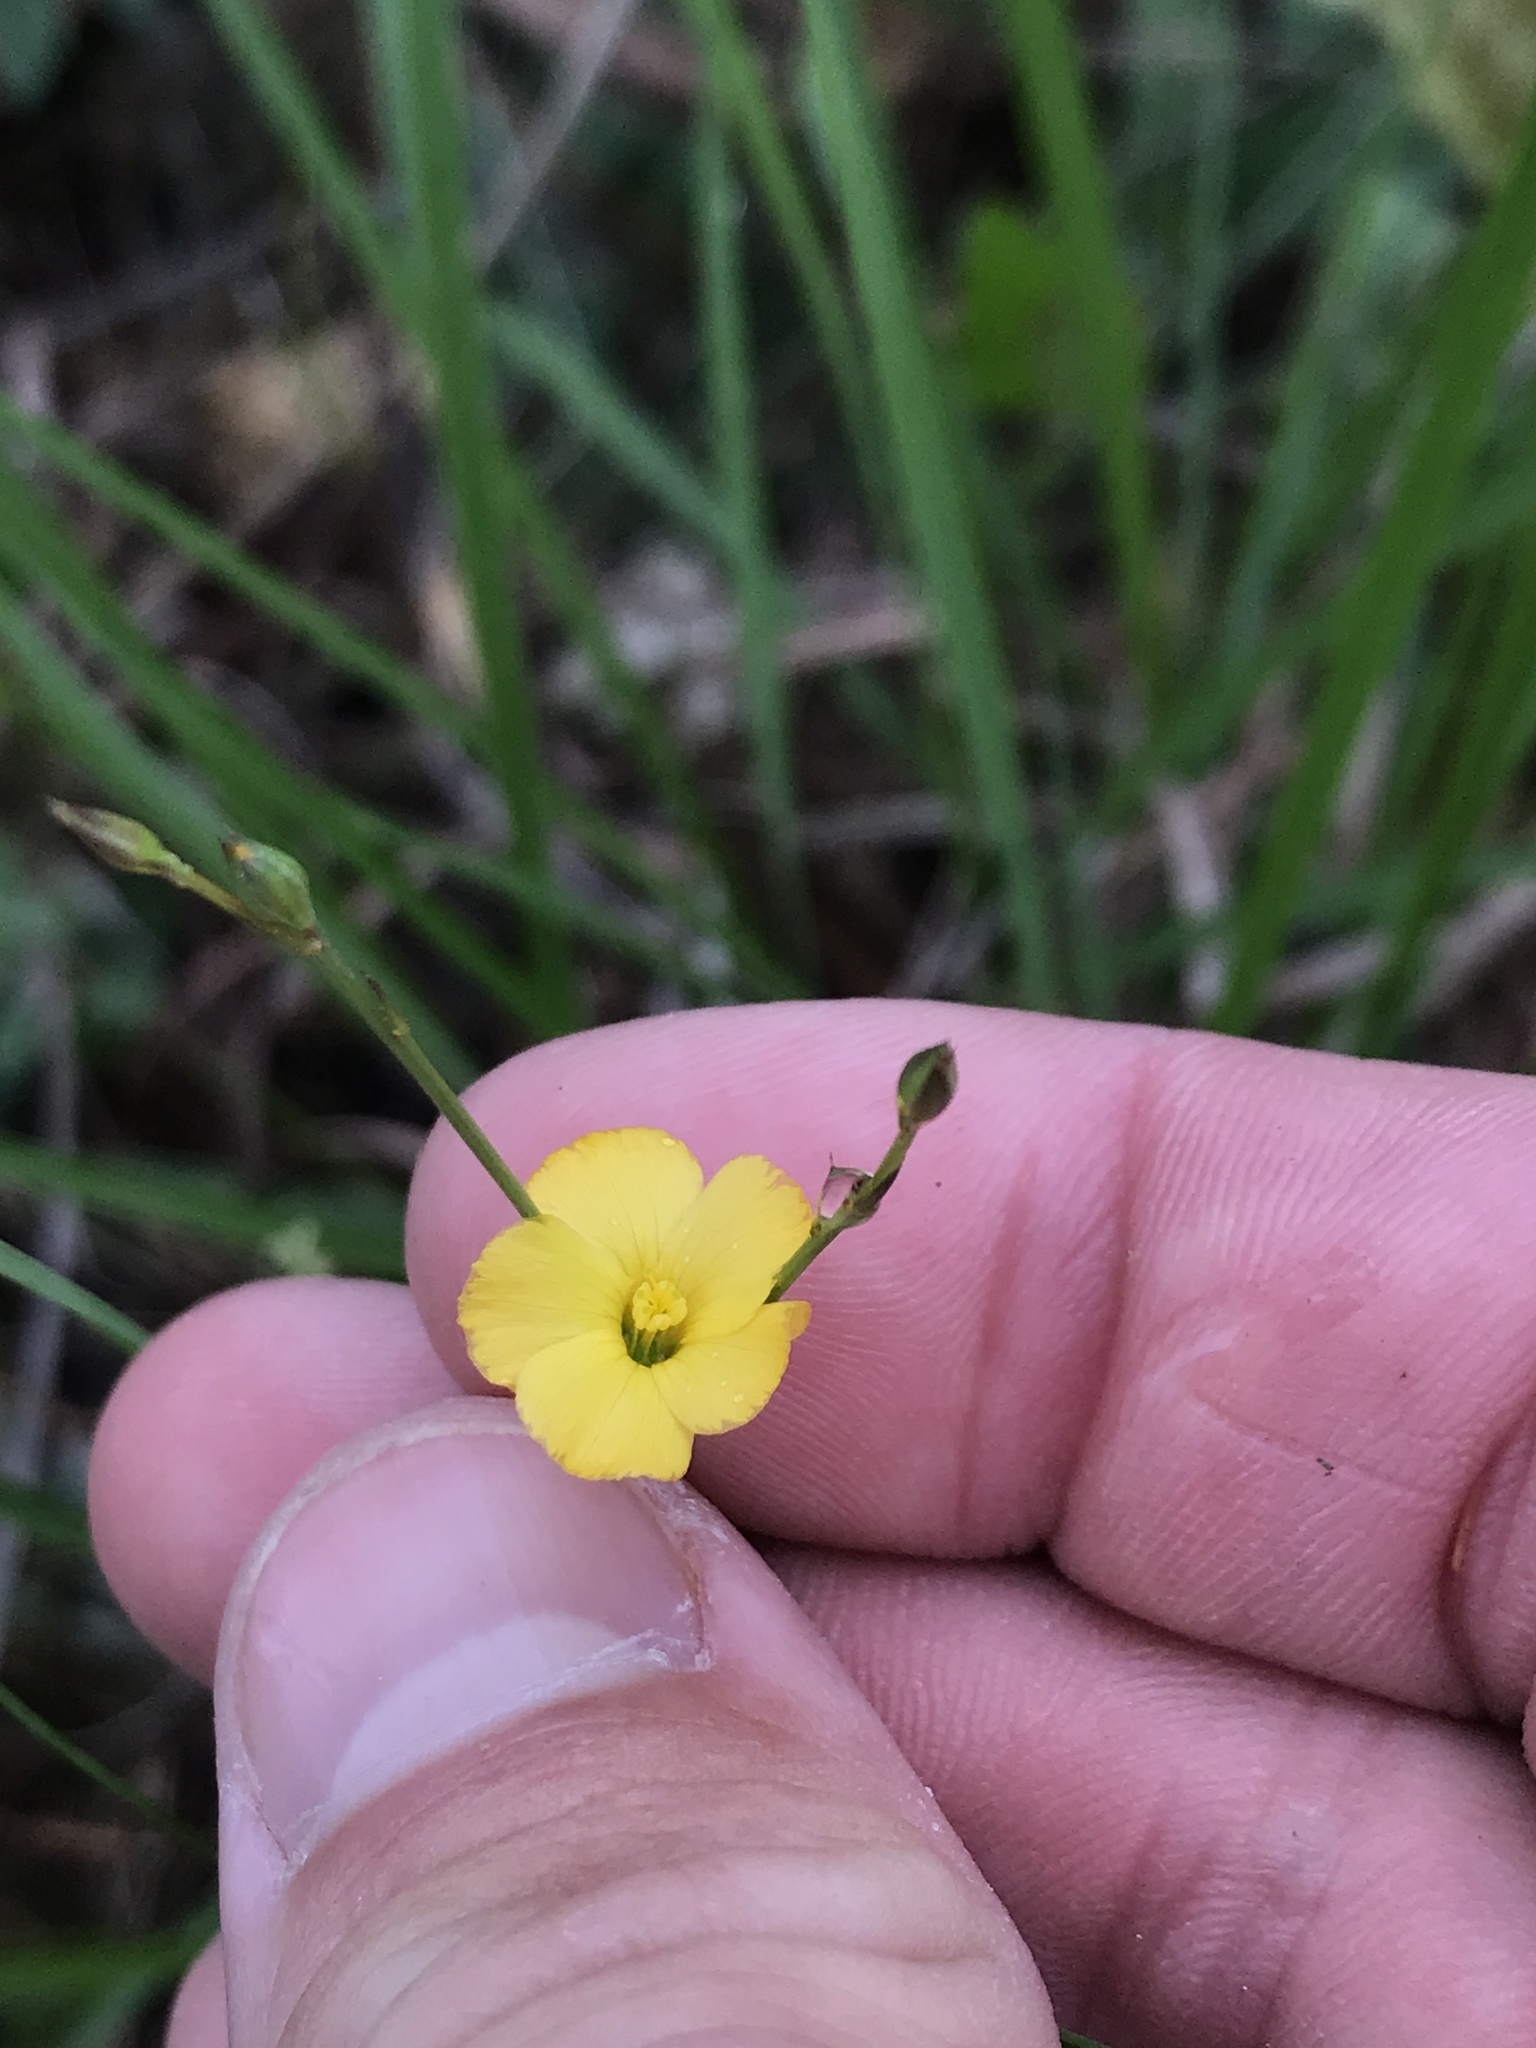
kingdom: Plantae
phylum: Tracheophyta
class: Magnoliopsida
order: Malpighiales
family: Linaceae
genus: Linum
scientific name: Linum rupestre
